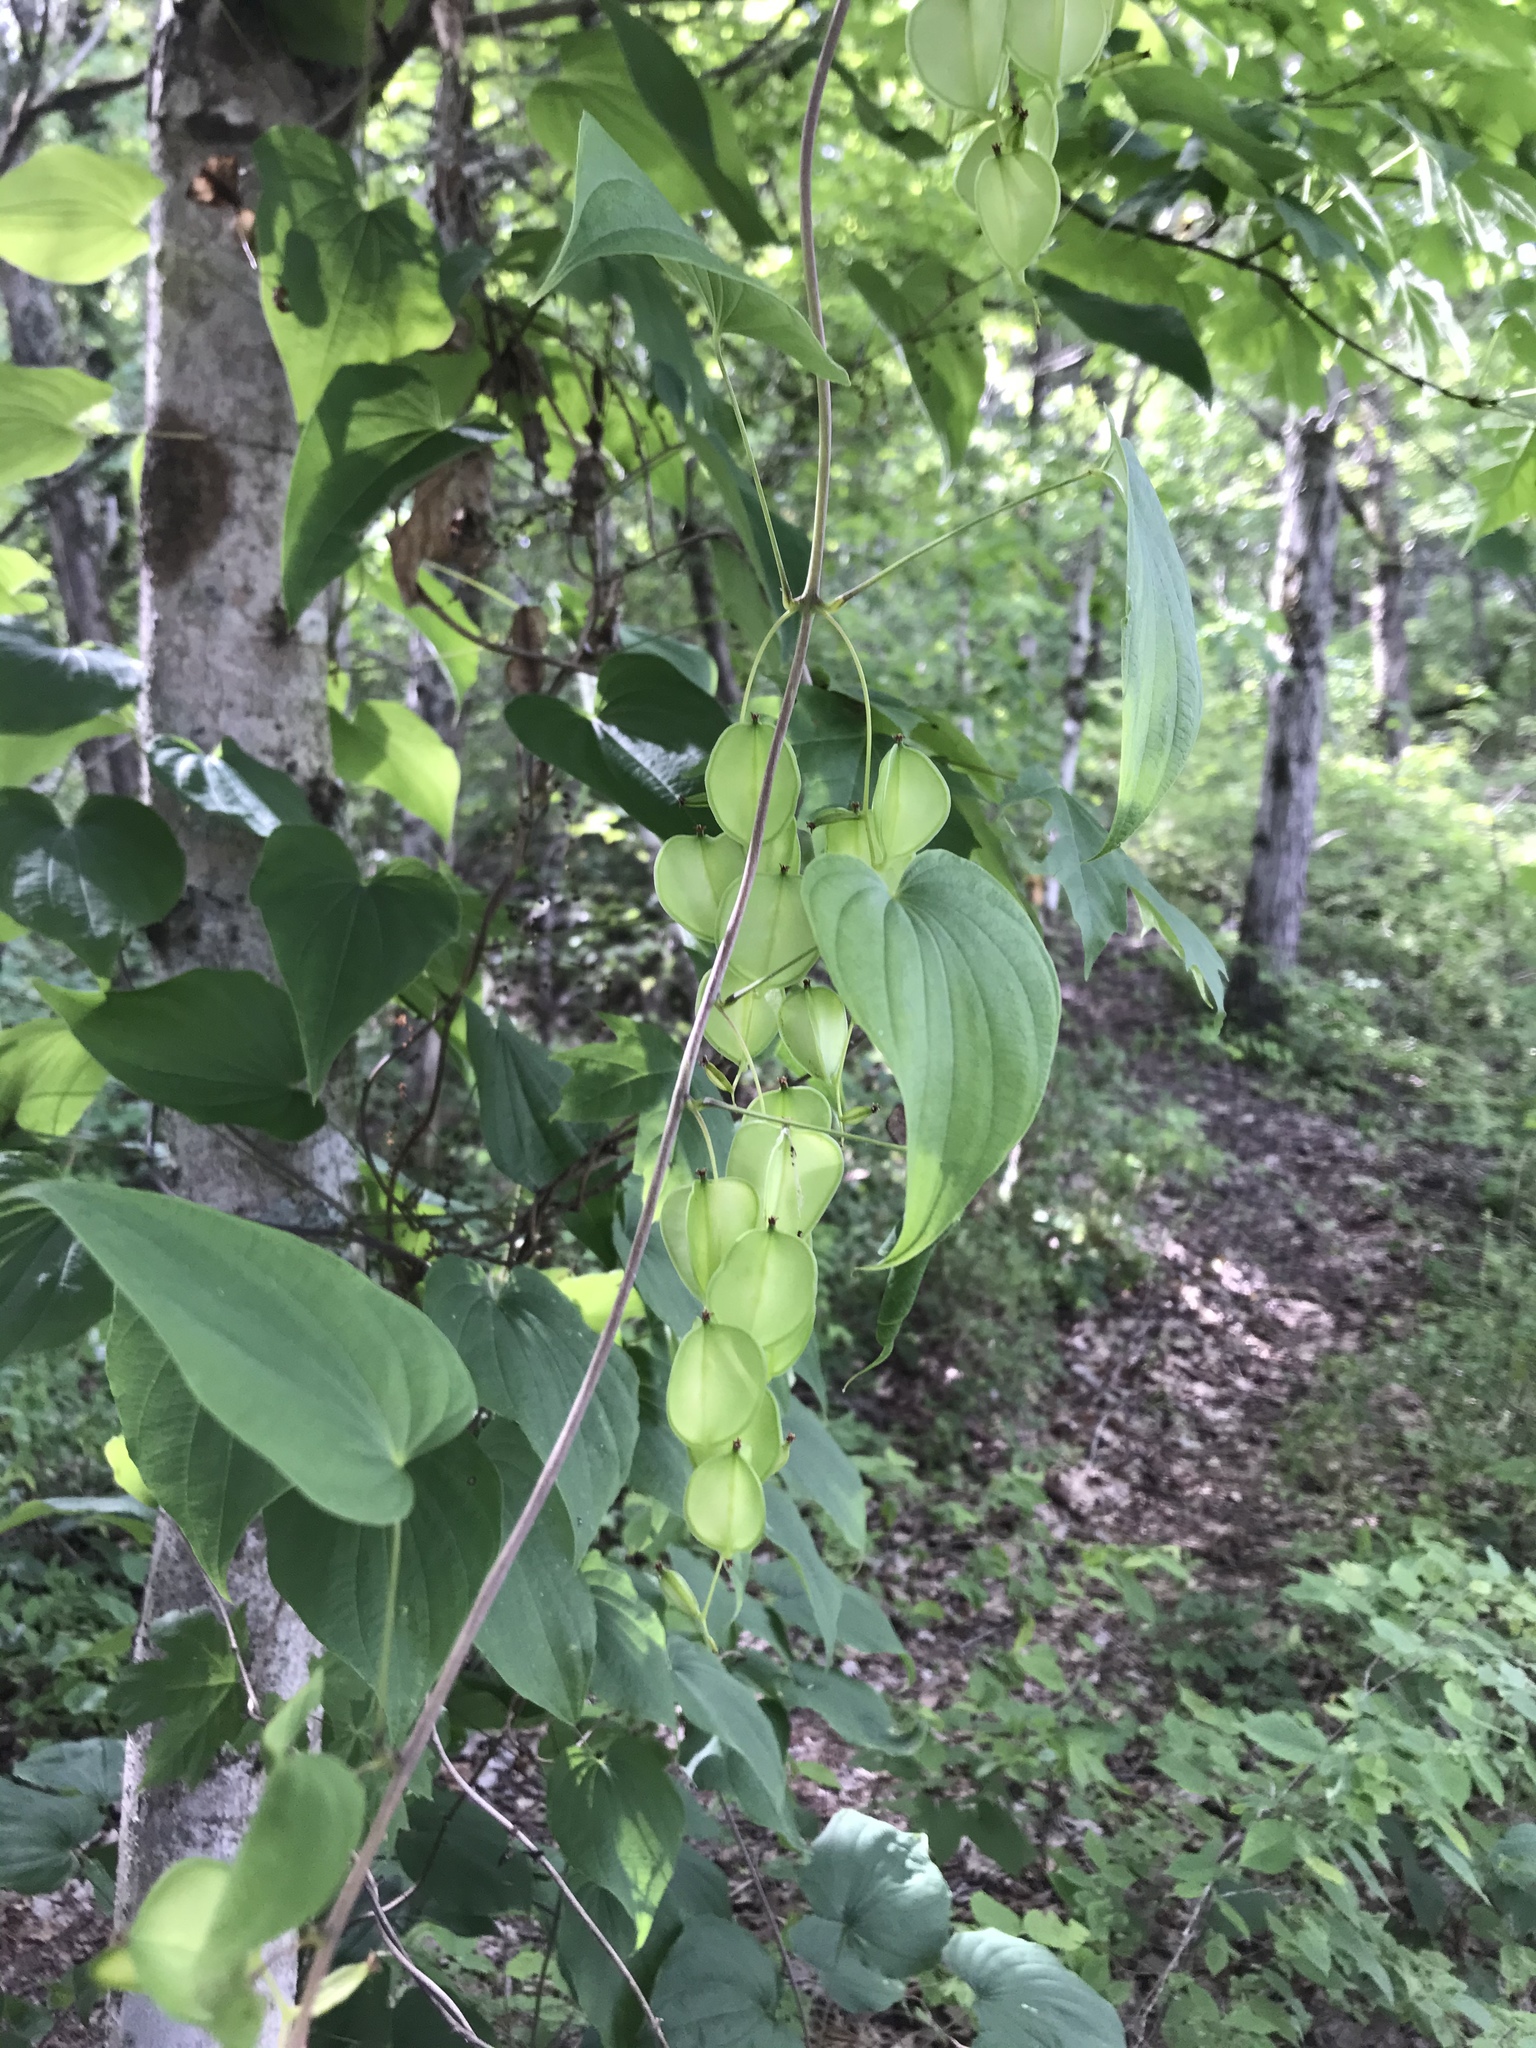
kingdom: Plantae
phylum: Tracheophyta
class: Liliopsida
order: Dioscoreales
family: Dioscoreaceae
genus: Dioscorea
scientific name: Dioscorea villosa
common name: Wild yam
